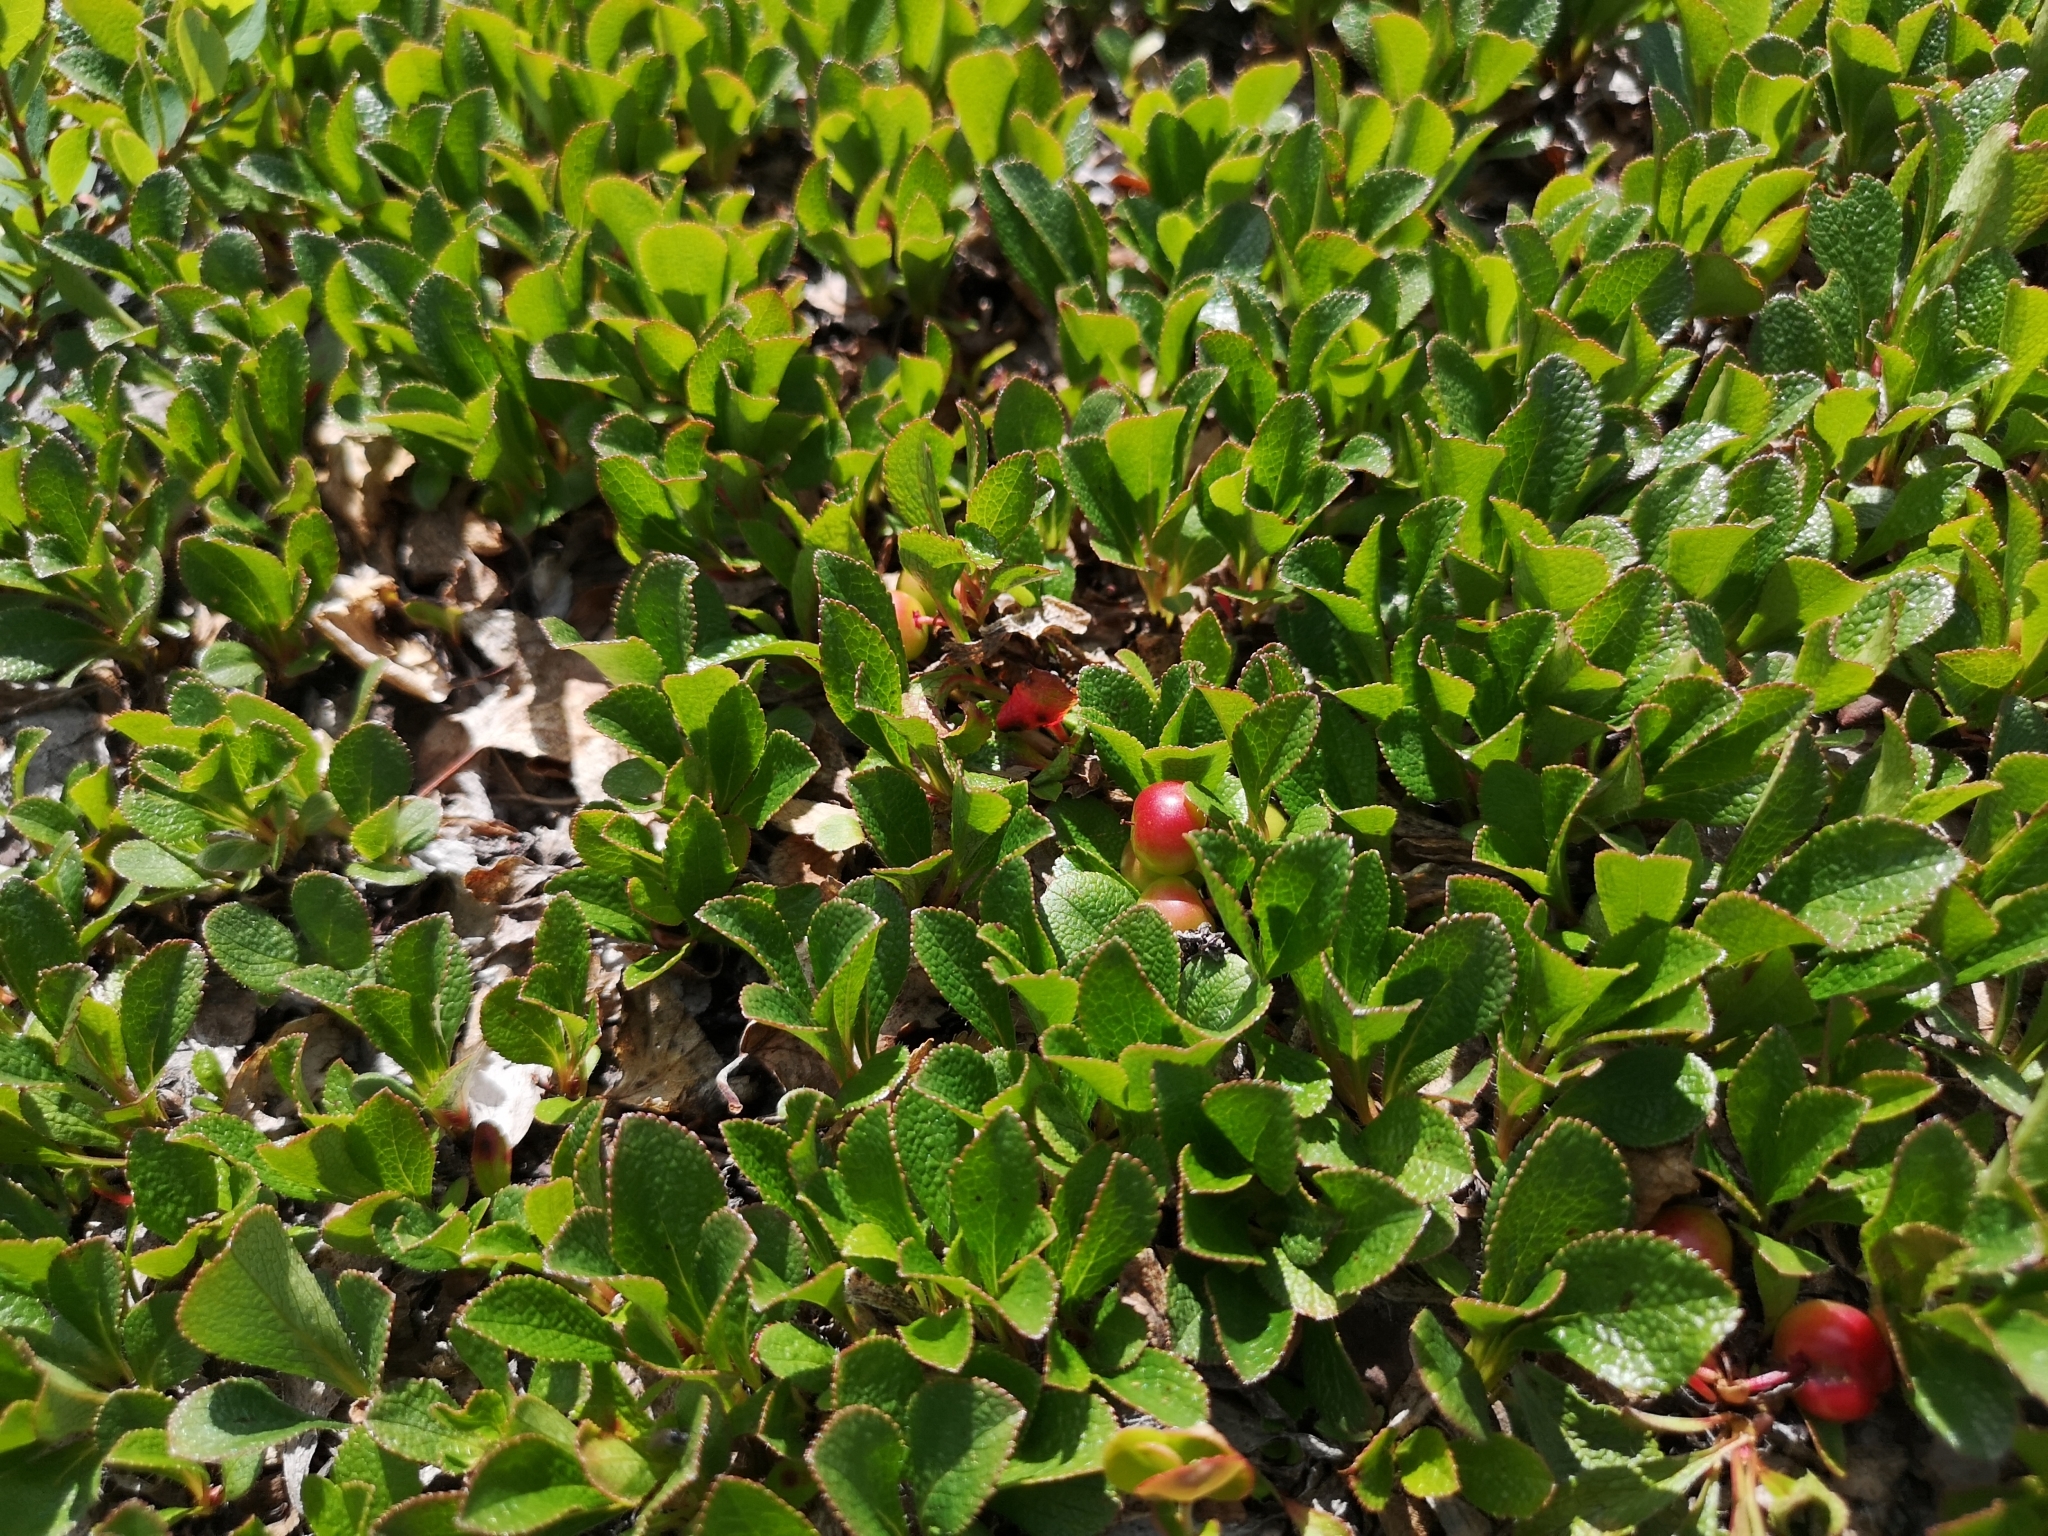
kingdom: Plantae
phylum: Tracheophyta
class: Magnoliopsida
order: Ericales
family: Ericaceae
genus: Arctostaphylos
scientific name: Arctostaphylos alpinus
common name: Alpine bearberry
